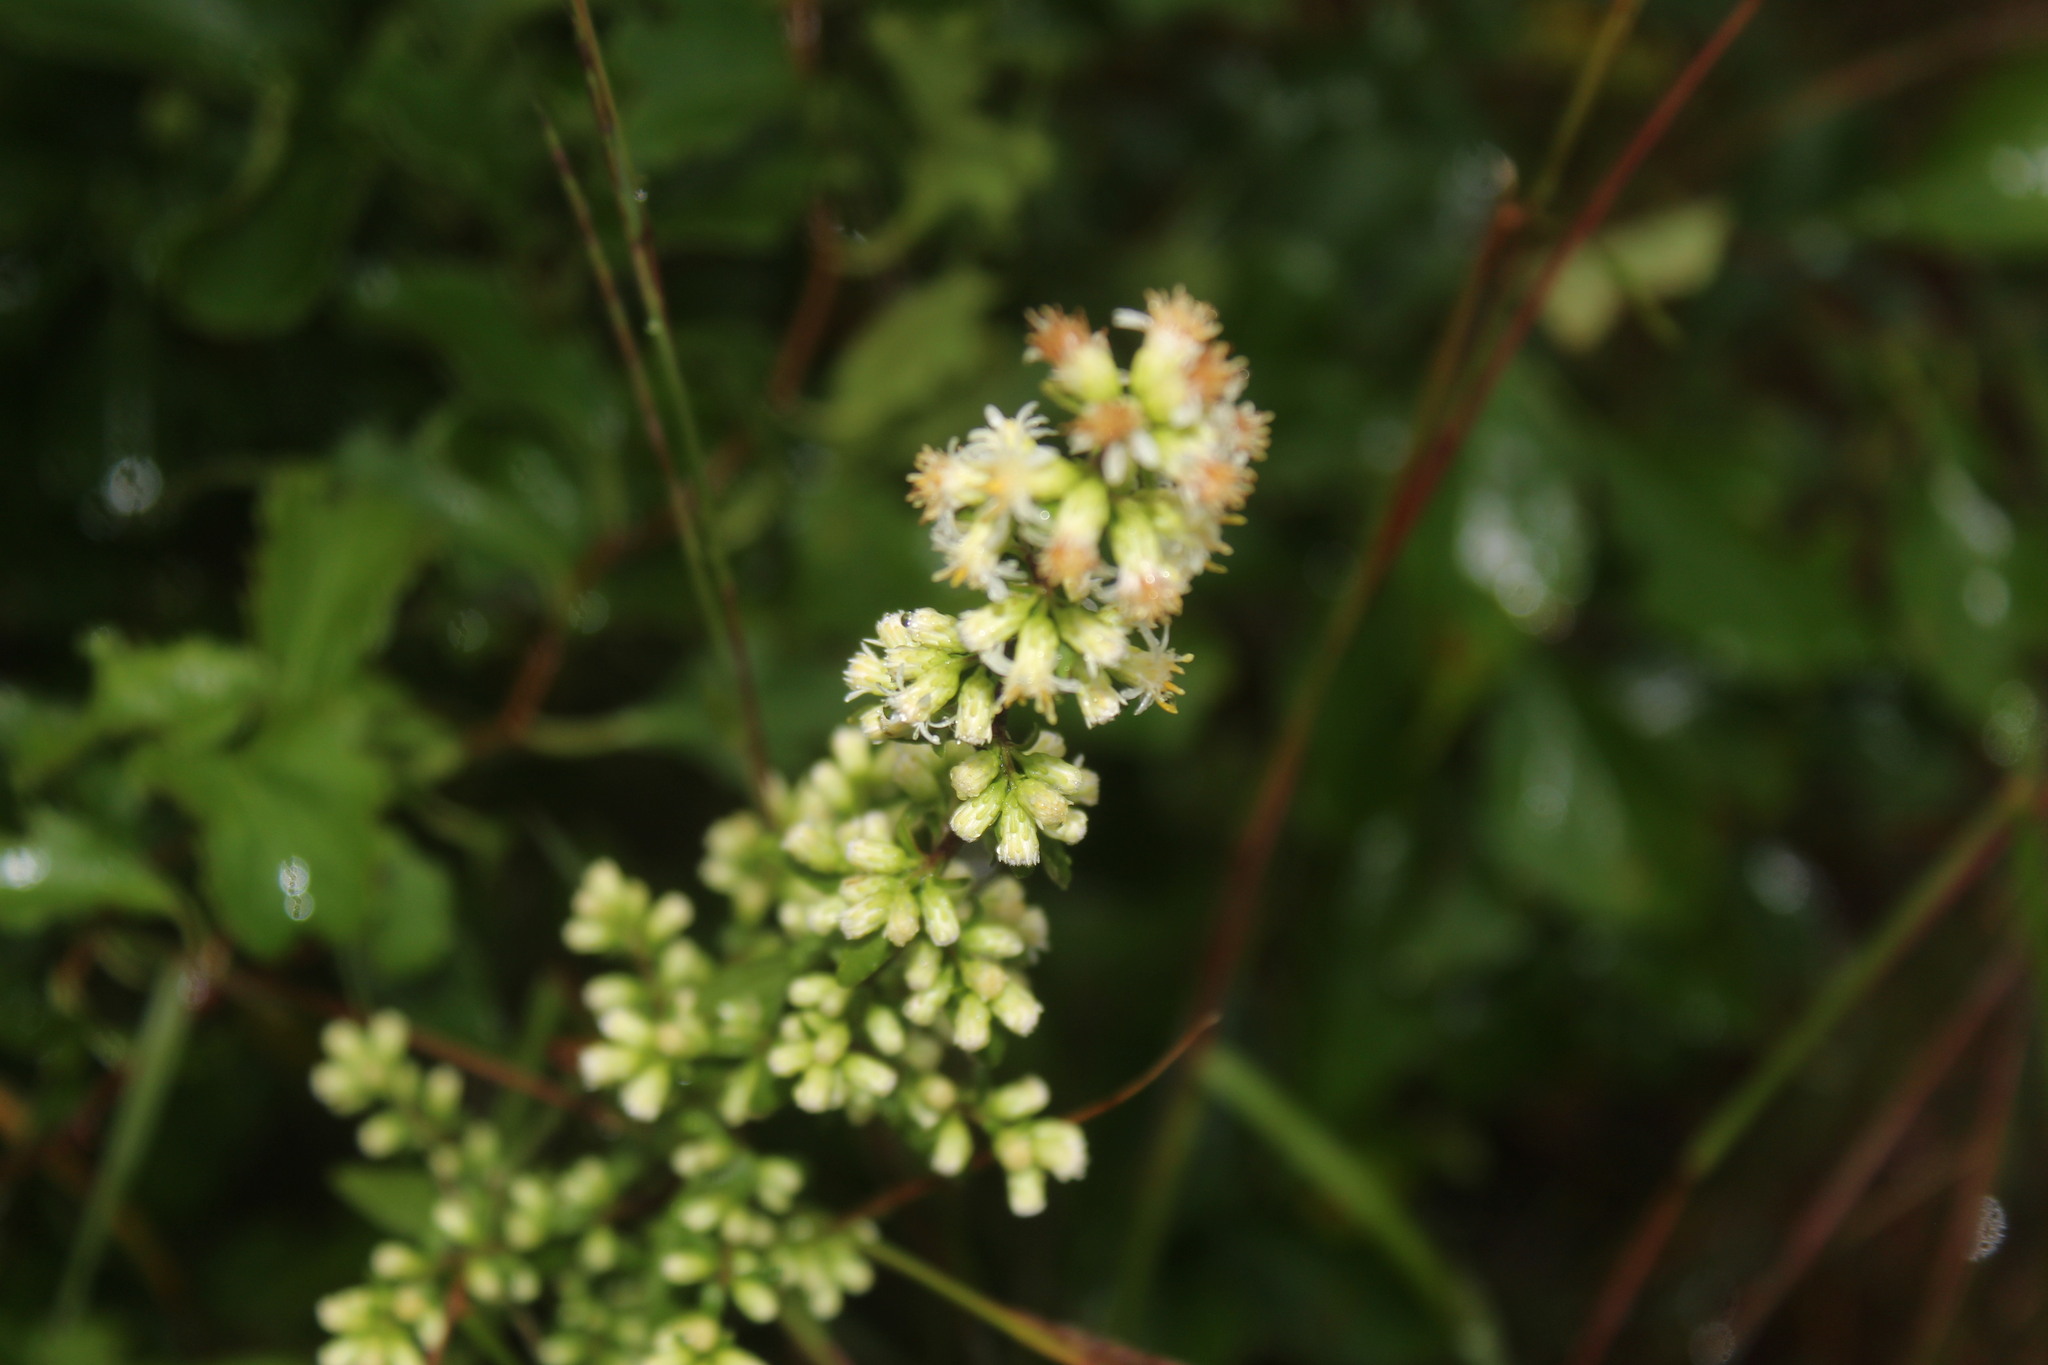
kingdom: Plantae
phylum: Tracheophyta
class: Magnoliopsida
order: Asterales
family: Asteraceae
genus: Solidago
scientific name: Solidago bicolor
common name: Silverrod
